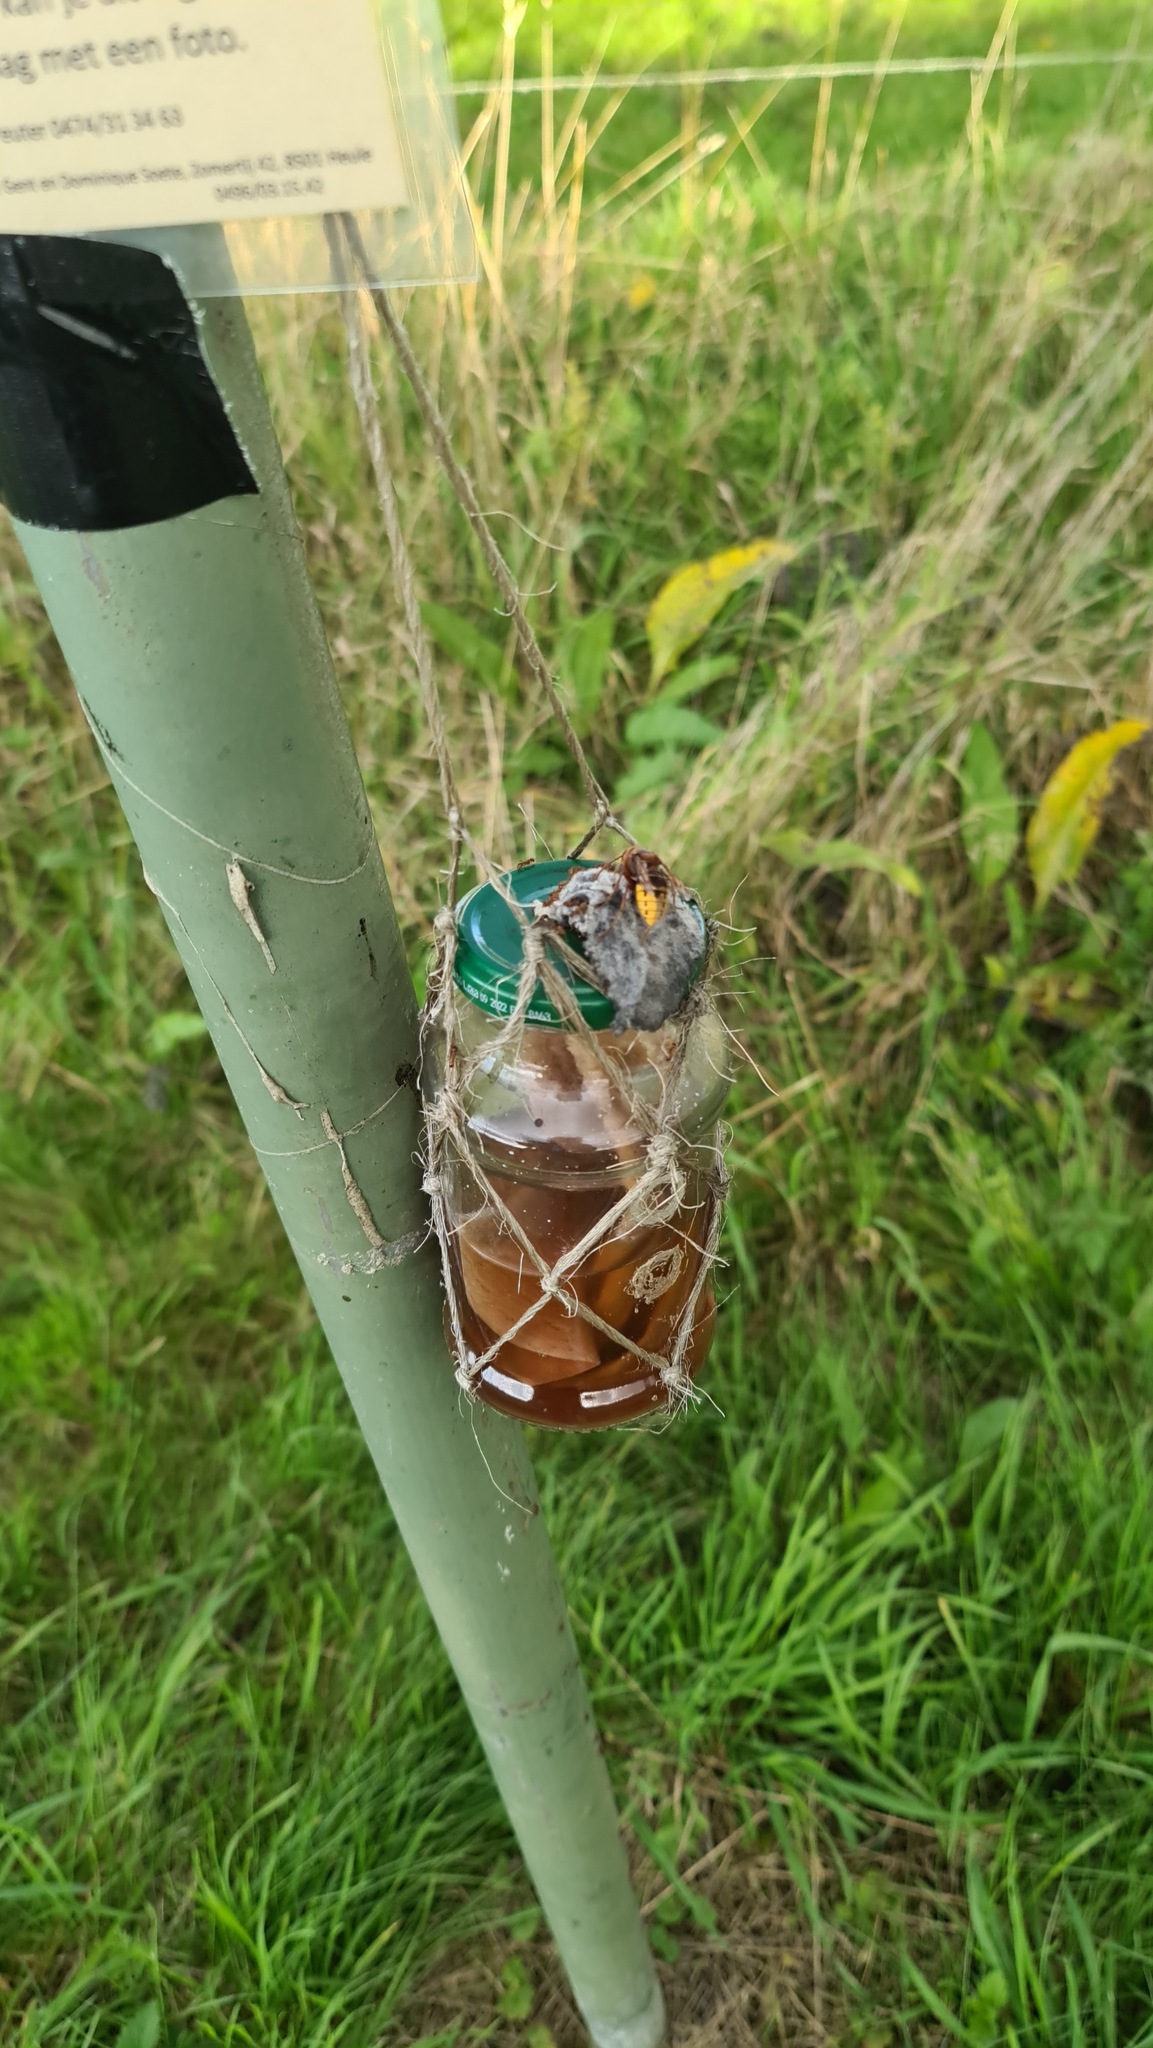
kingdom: Animalia
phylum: Arthropoda
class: Insecta
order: Hymenoptera
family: Vespidae
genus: Vespa
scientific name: Vespa crabro
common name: Hornet
